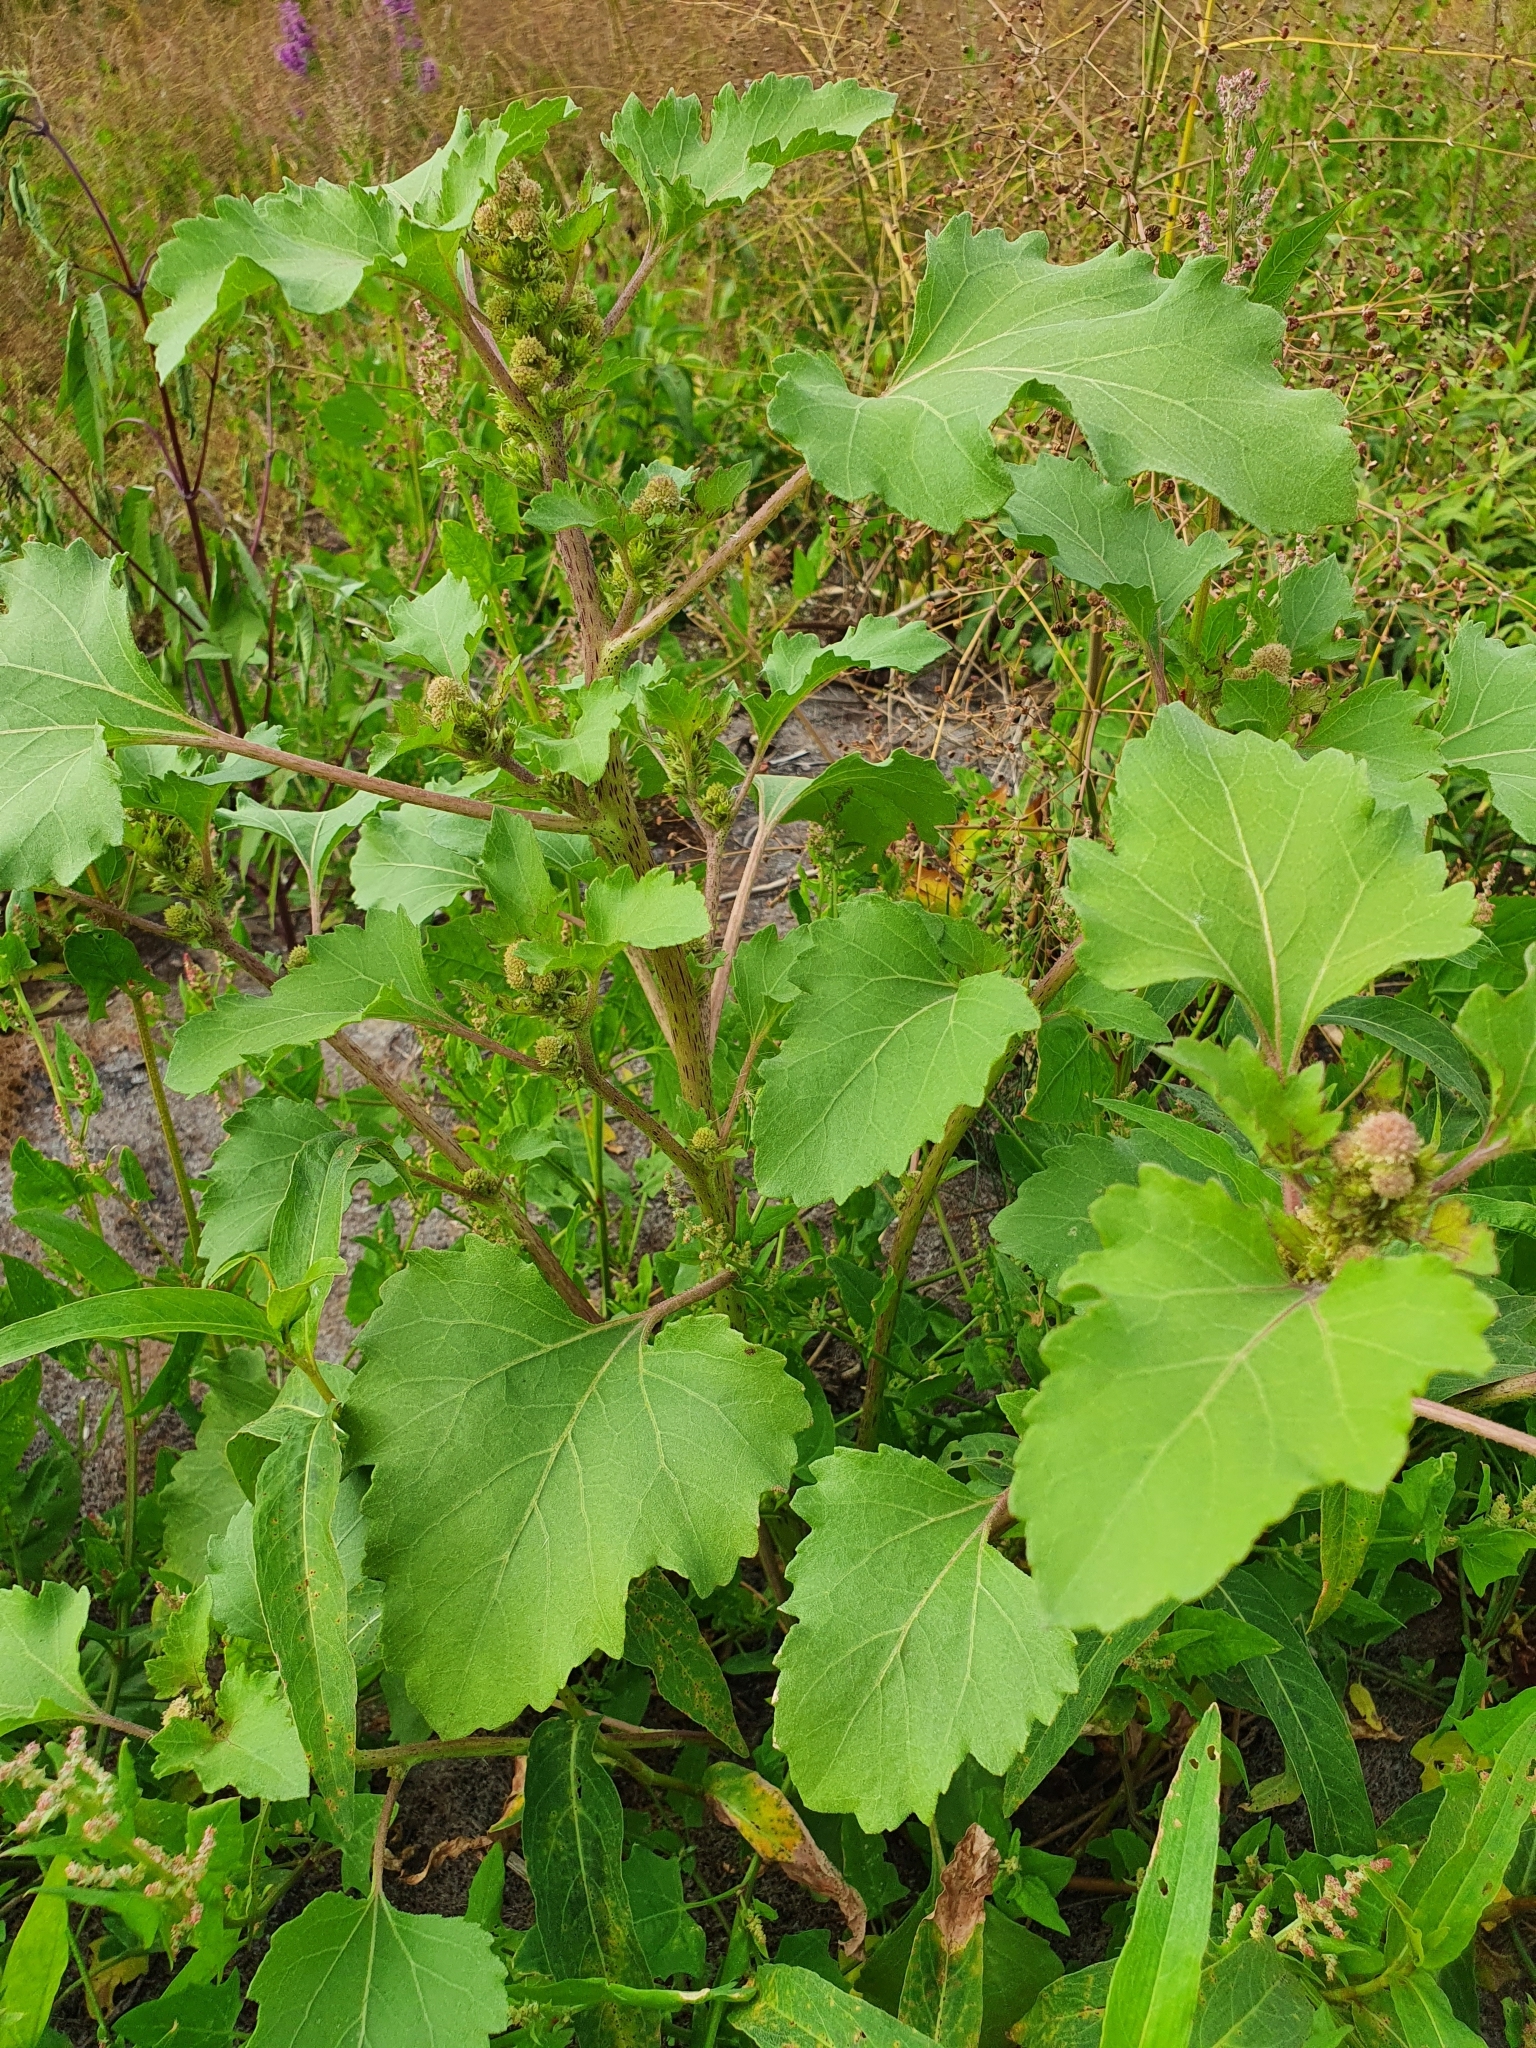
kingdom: Plantae
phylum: Tracheophyta
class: Magnoliopsida
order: Asterales
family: Asteraceae
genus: Xanthium
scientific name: Xanthium orientale
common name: Californian burr
